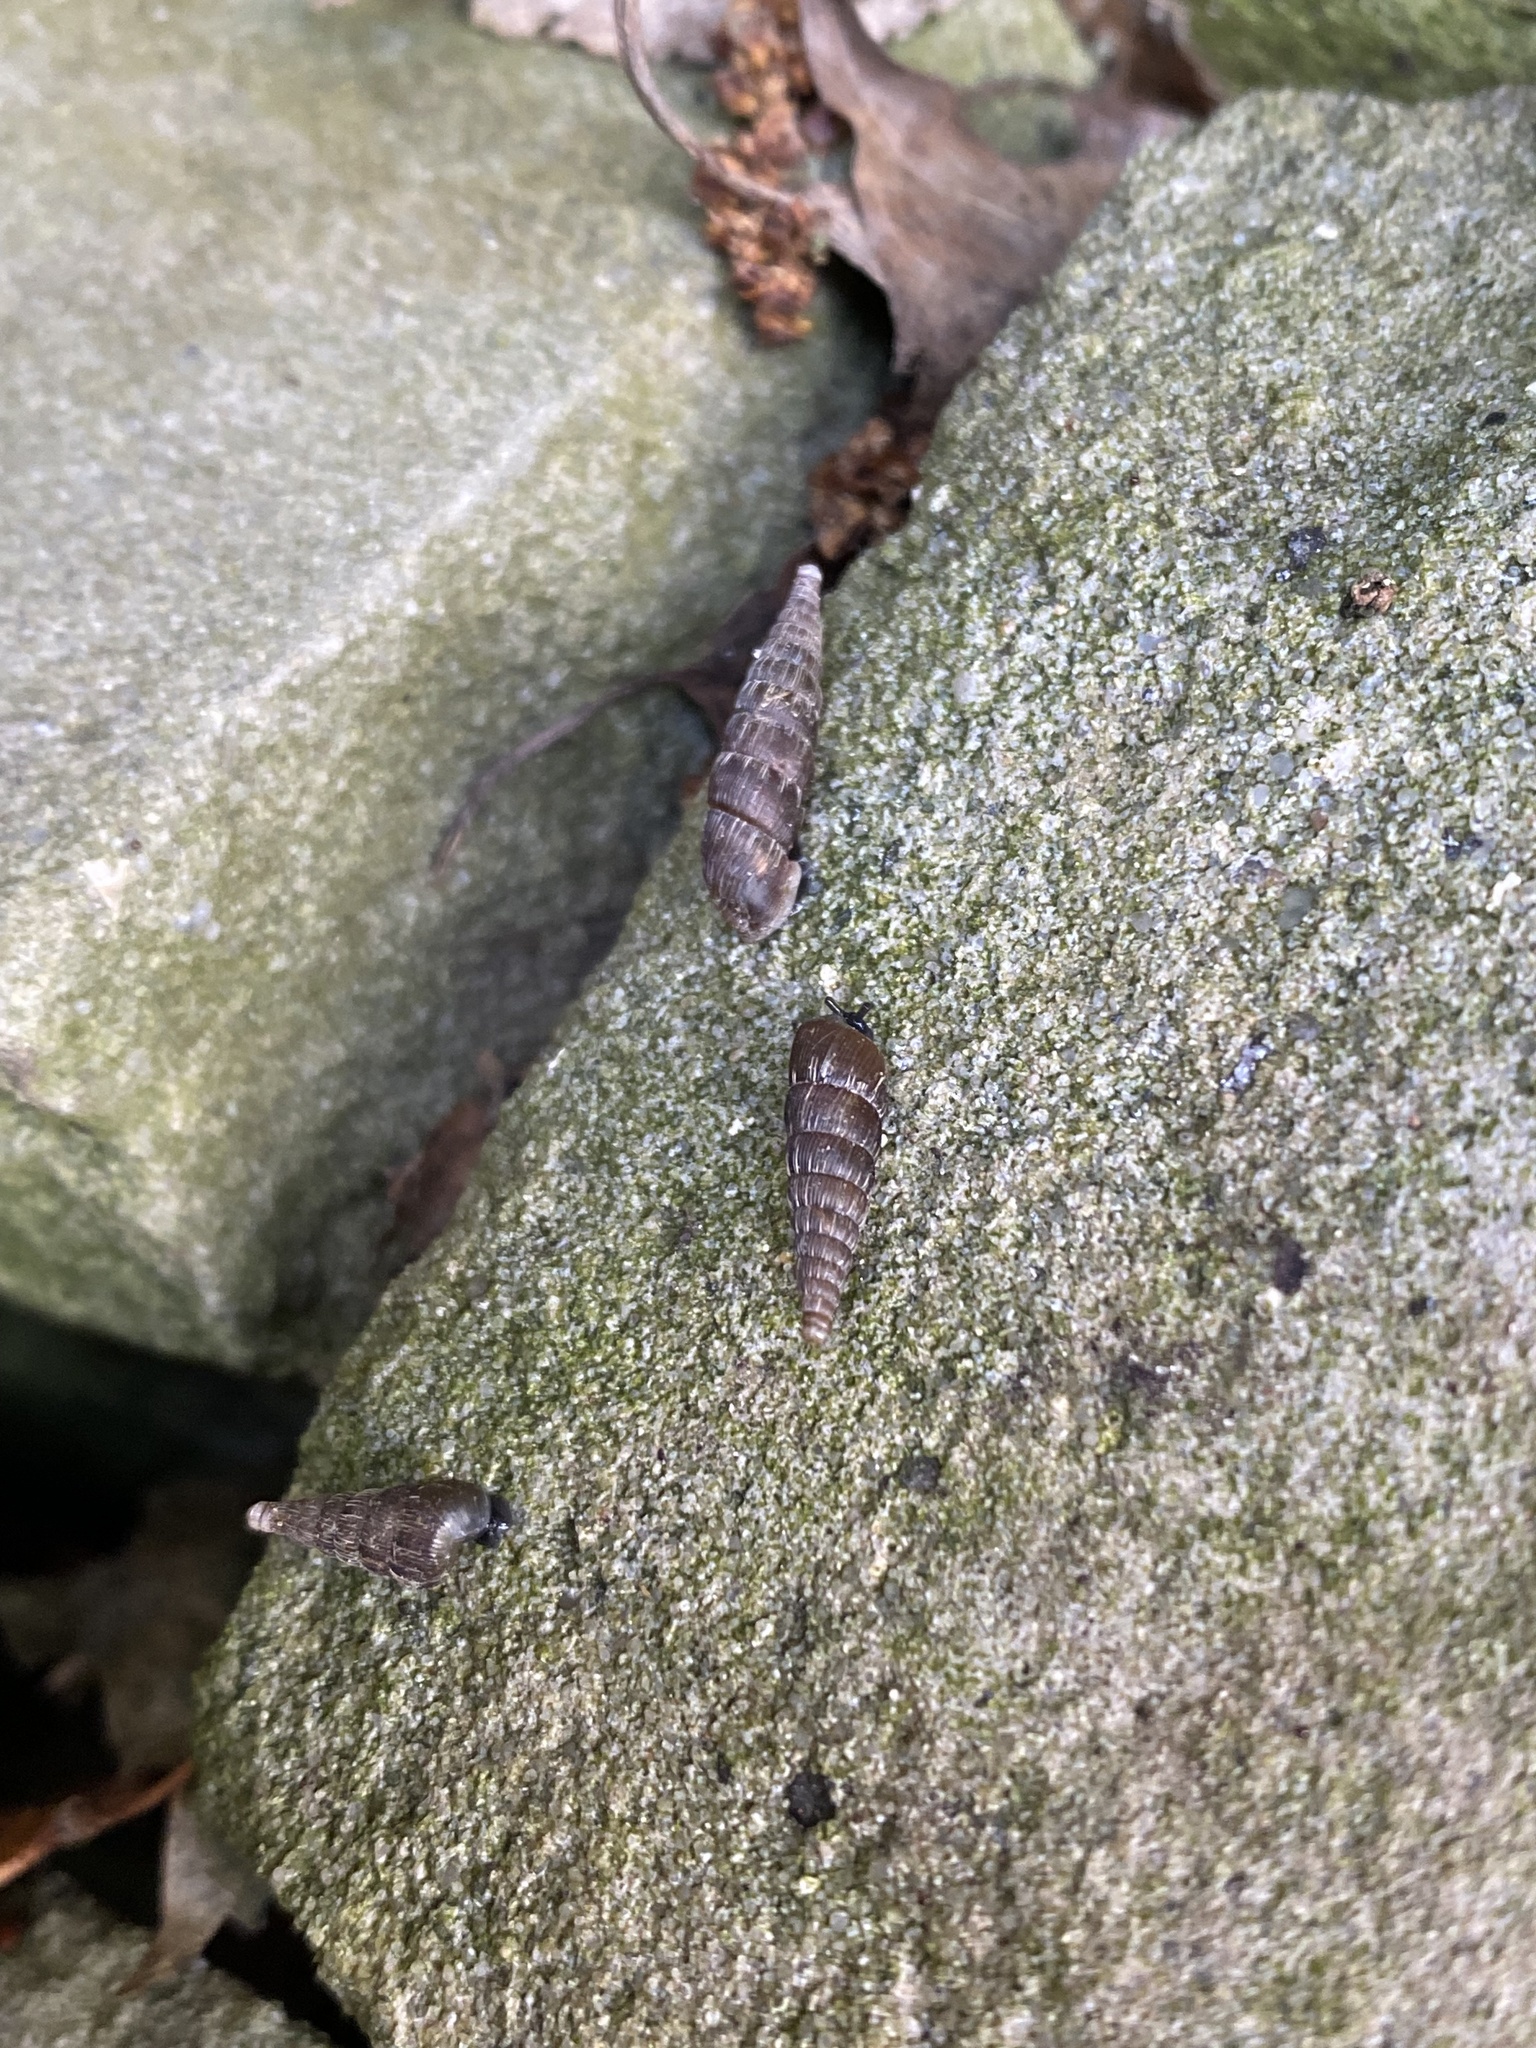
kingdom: Animalia
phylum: Mollusca
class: Gastropoda
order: Stylommatophora
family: Clausiliidae
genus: Laciniaria
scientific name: Laciniaria plicata
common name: Single-lipped door snail
